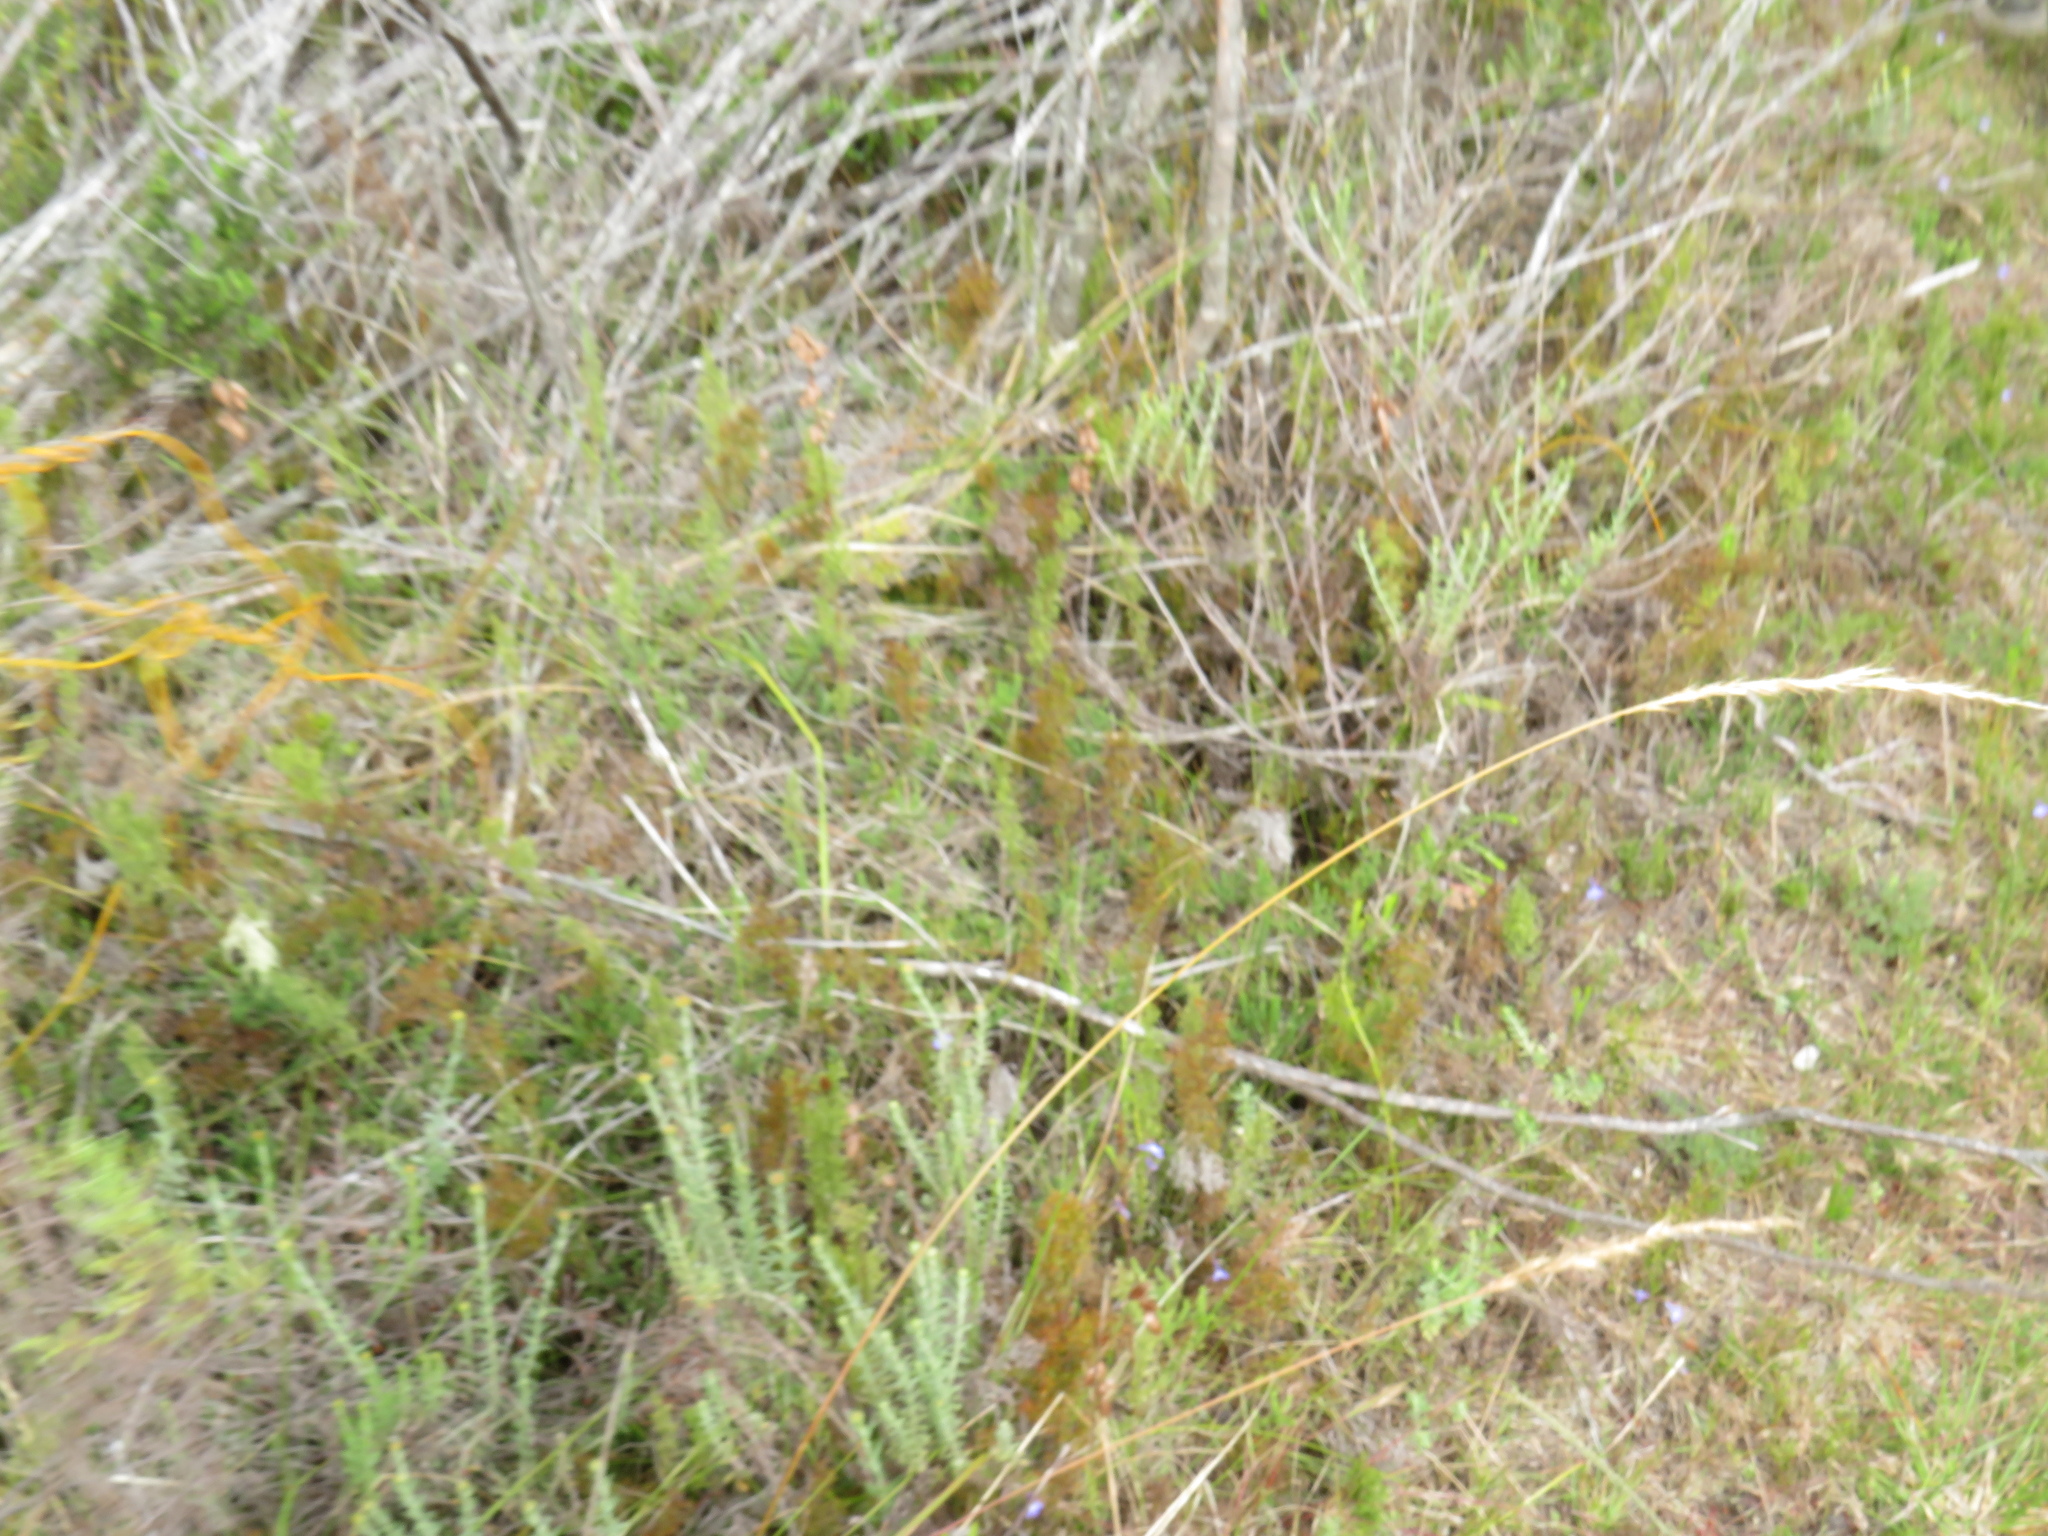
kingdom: Plantae
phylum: Tracheophyta
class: Liliopsida
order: Poales
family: Restionaceae
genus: Thamnochortus
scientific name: Thamnochortus fruticosus
